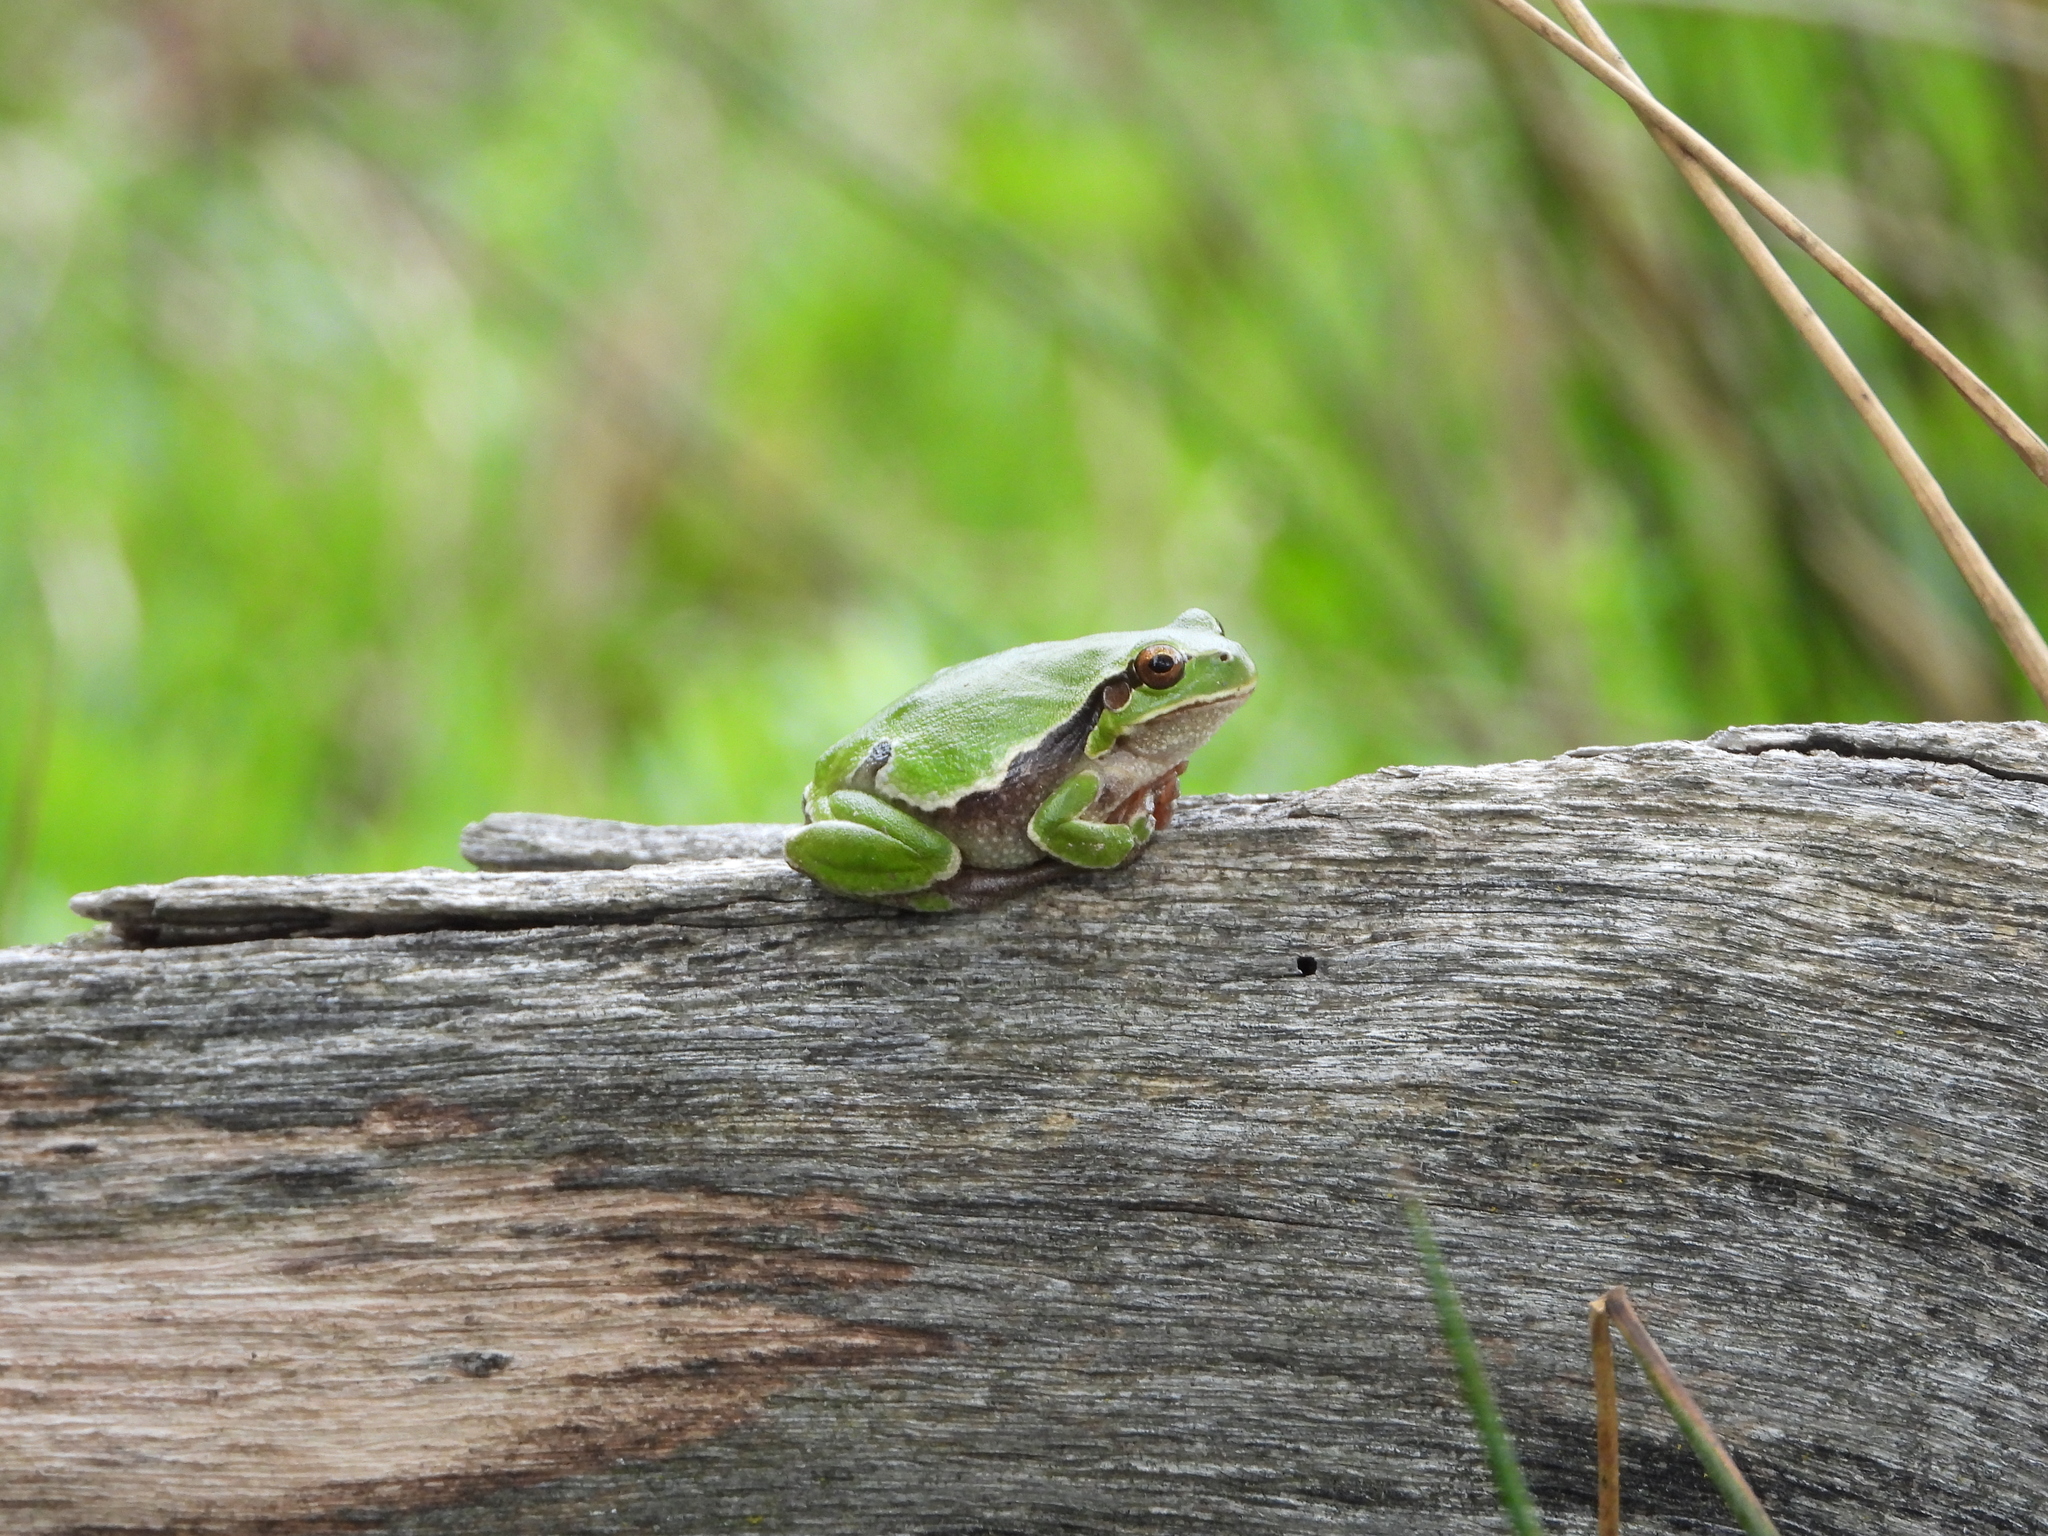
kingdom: Animalia
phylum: Chordata
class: Amphibia
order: Anura
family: Hylidae
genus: Hyla
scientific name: Hyla intermedia
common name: Italian tree frog
